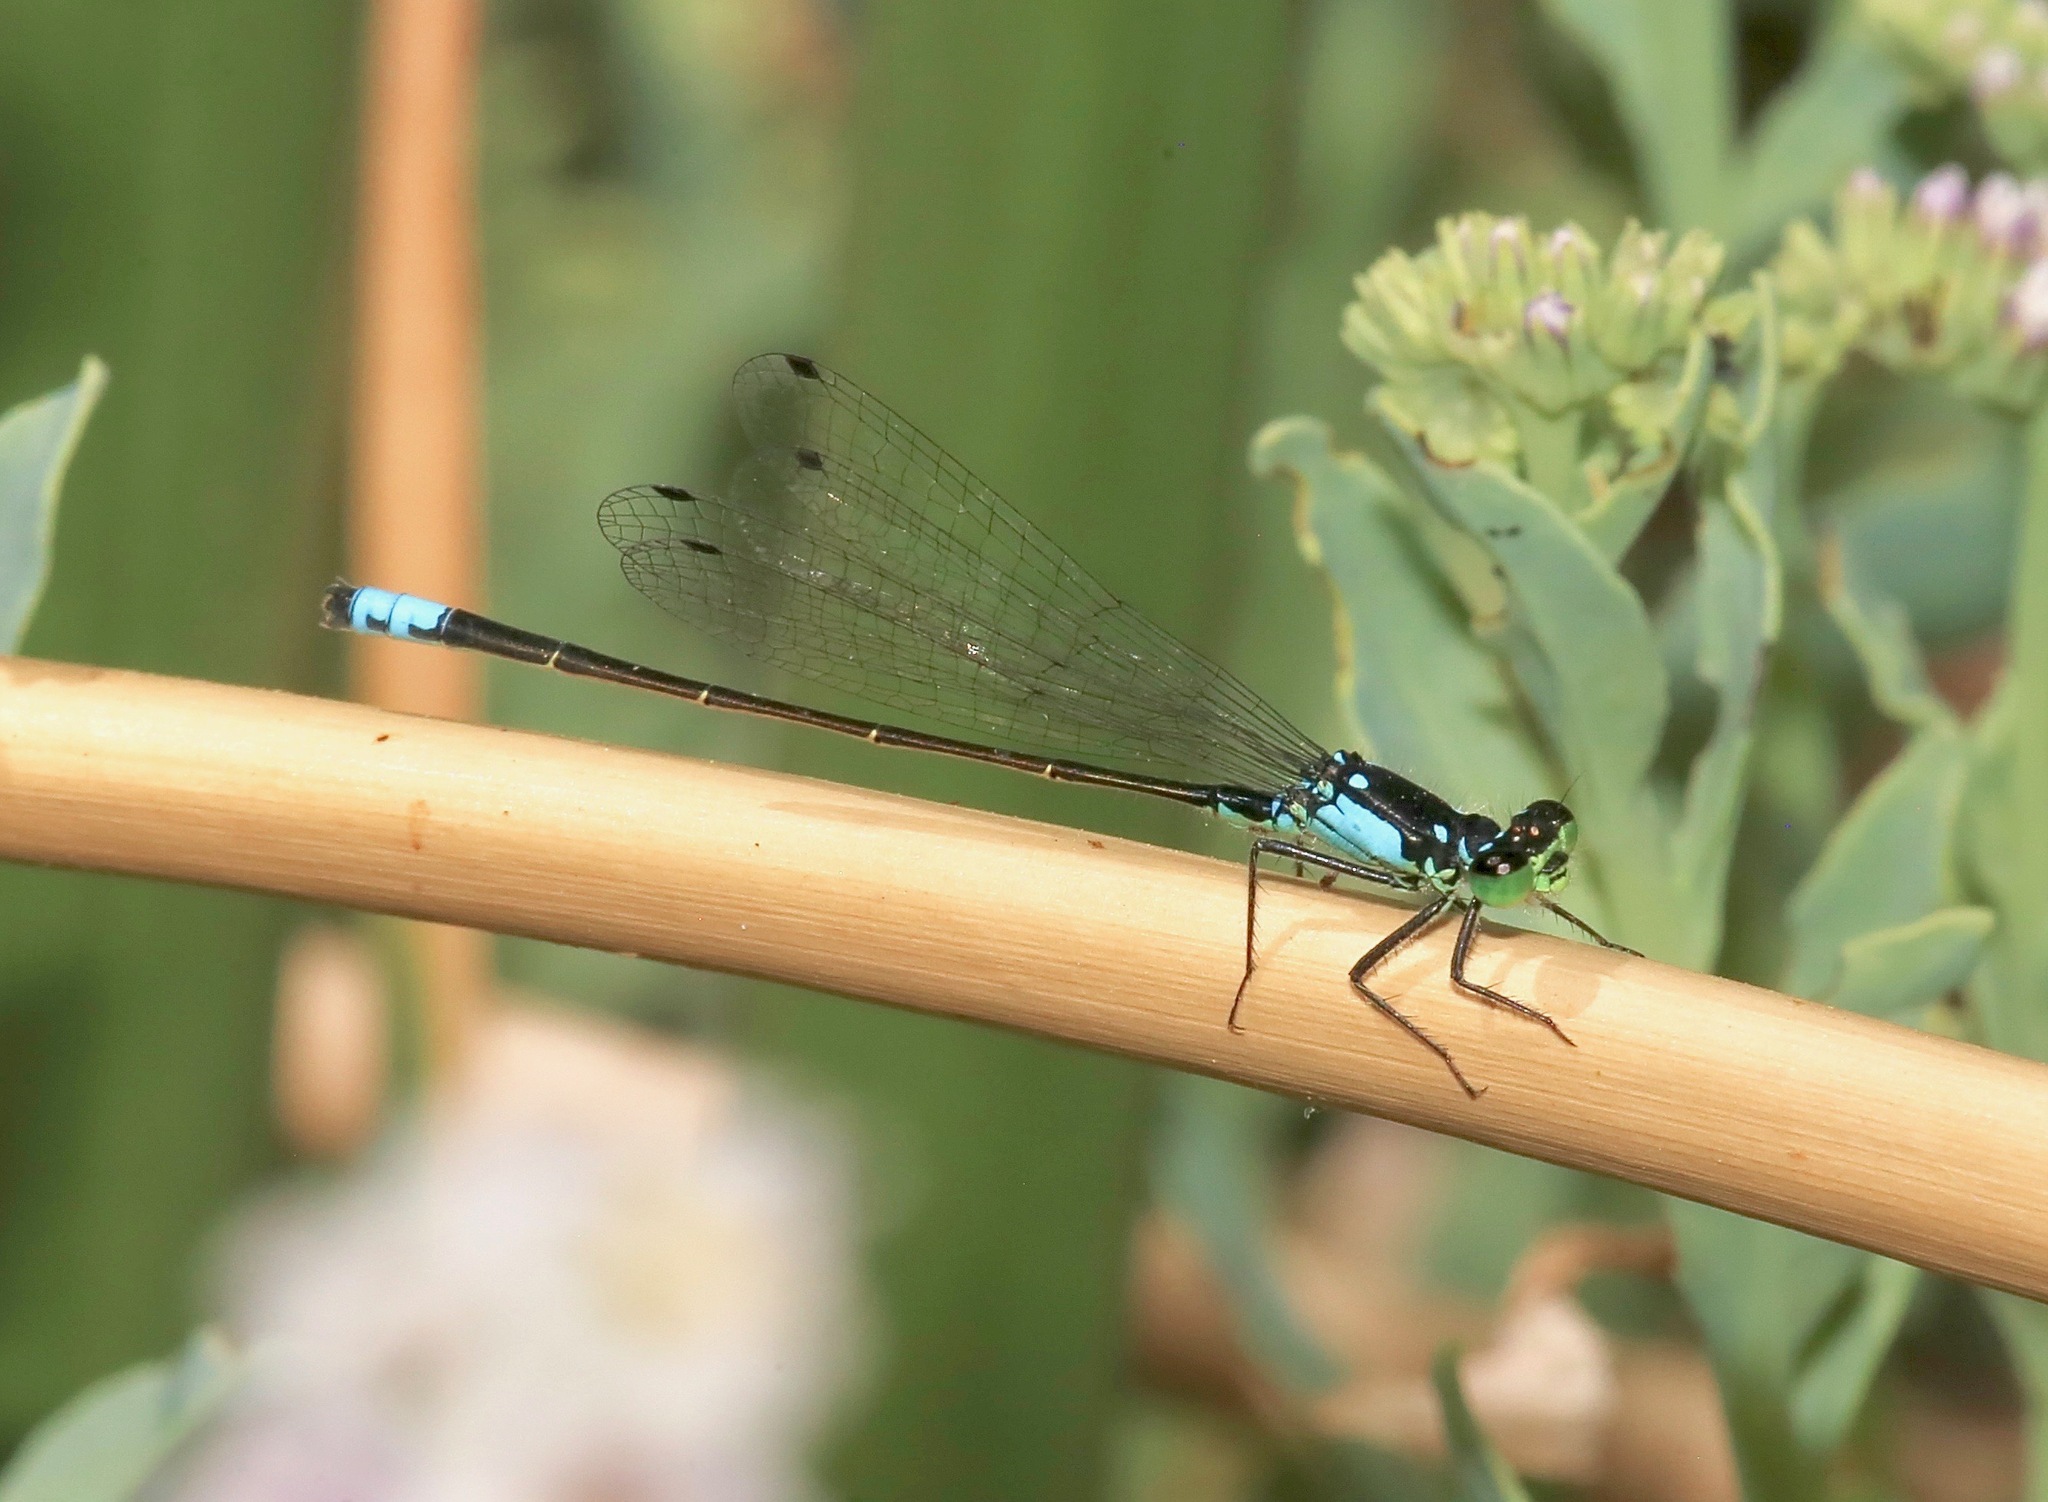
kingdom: Animalia
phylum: Arthropoda
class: Insecta
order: Odonata
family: Coenagrionidae
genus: Ischnura
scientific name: Ischnura cervula
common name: Pacific forktail
